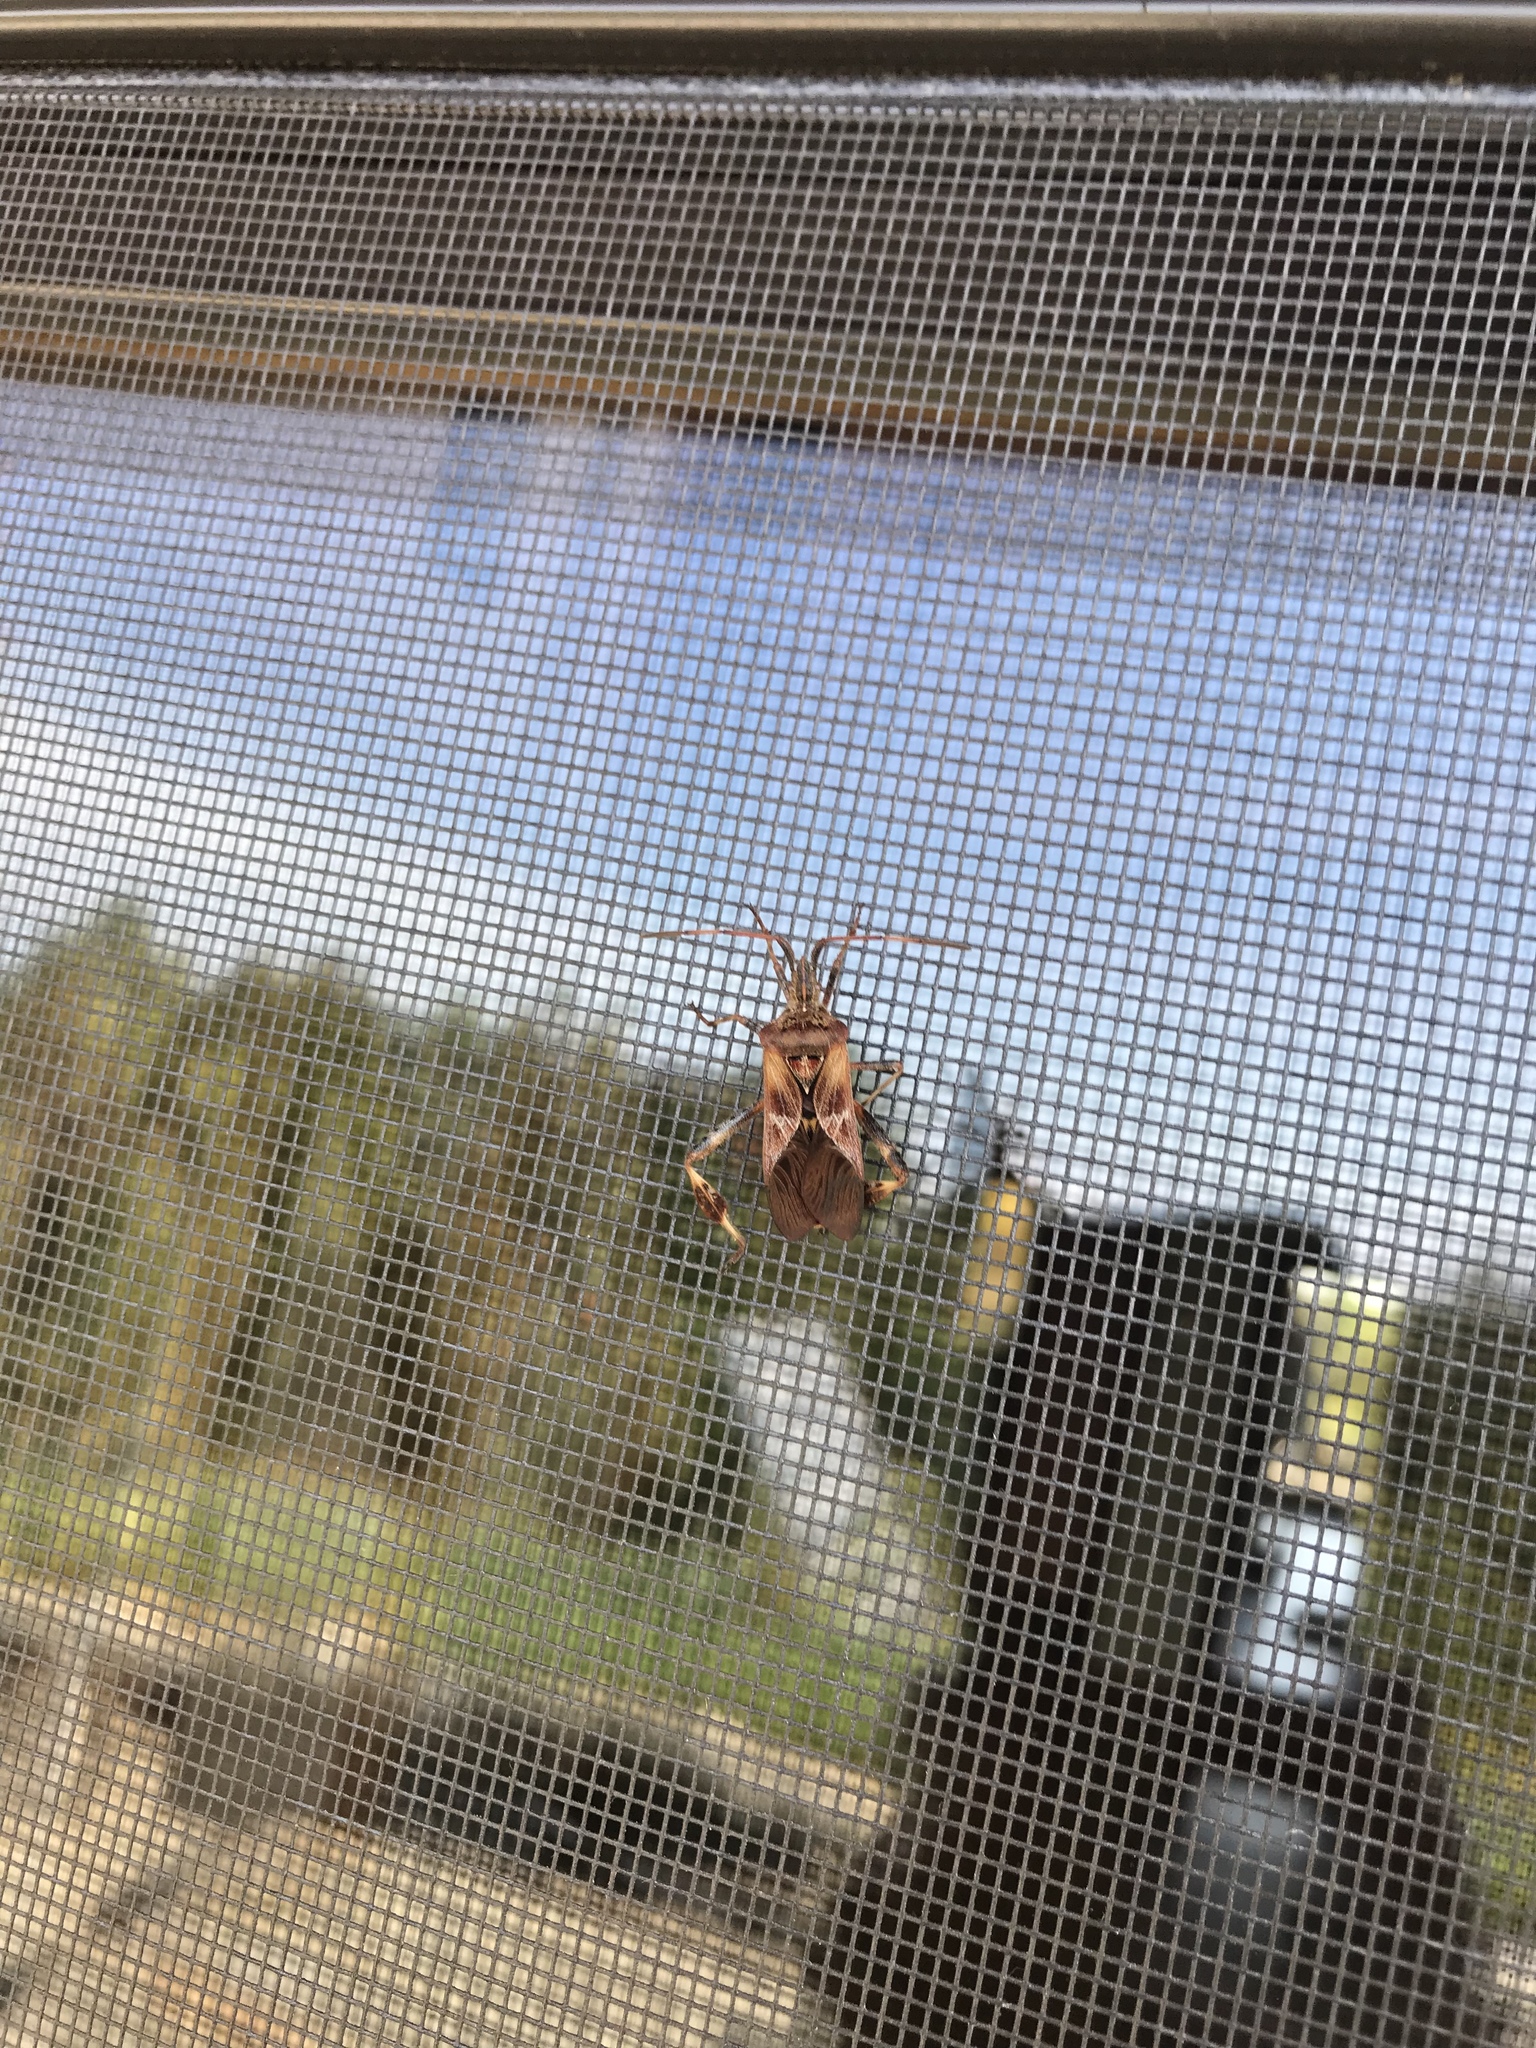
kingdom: Animalia
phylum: Arthropoda
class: Insecta
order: Hemiptera
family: Coreidae
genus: Leptoglossus
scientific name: Leptoglossus occidentalis
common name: Western conifer-seed bug
